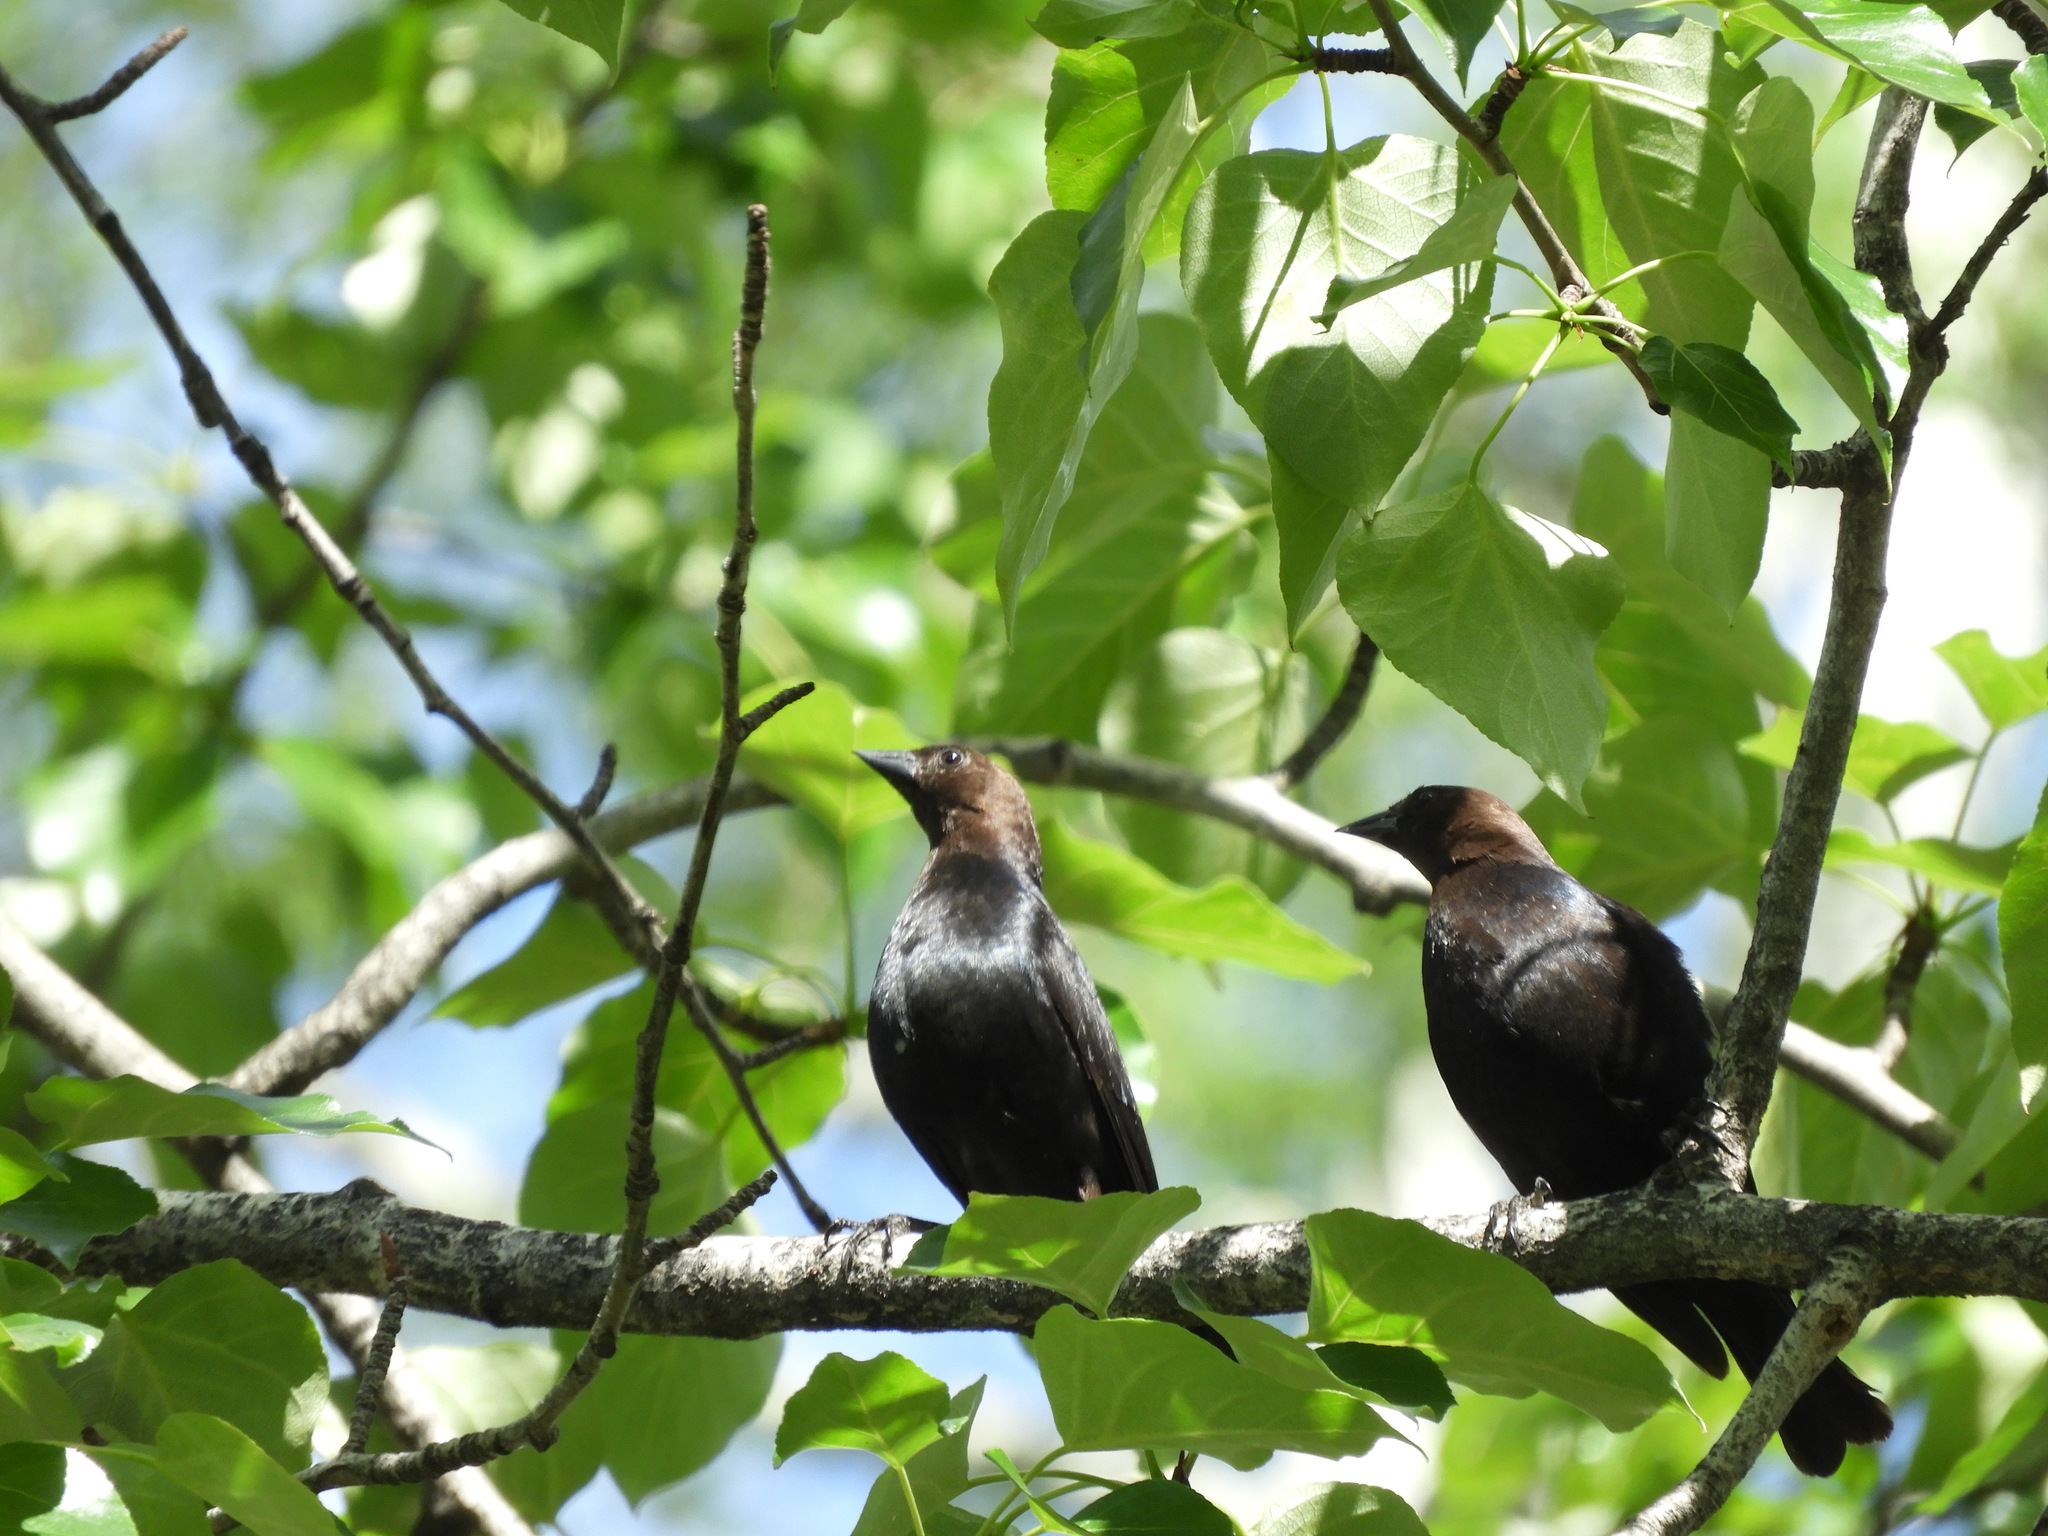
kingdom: Animalia
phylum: Chordata
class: Aves
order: Passeriformes
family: Icteridae
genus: Molothrus
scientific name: Molothrus ater
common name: Brown-headed cowbird
